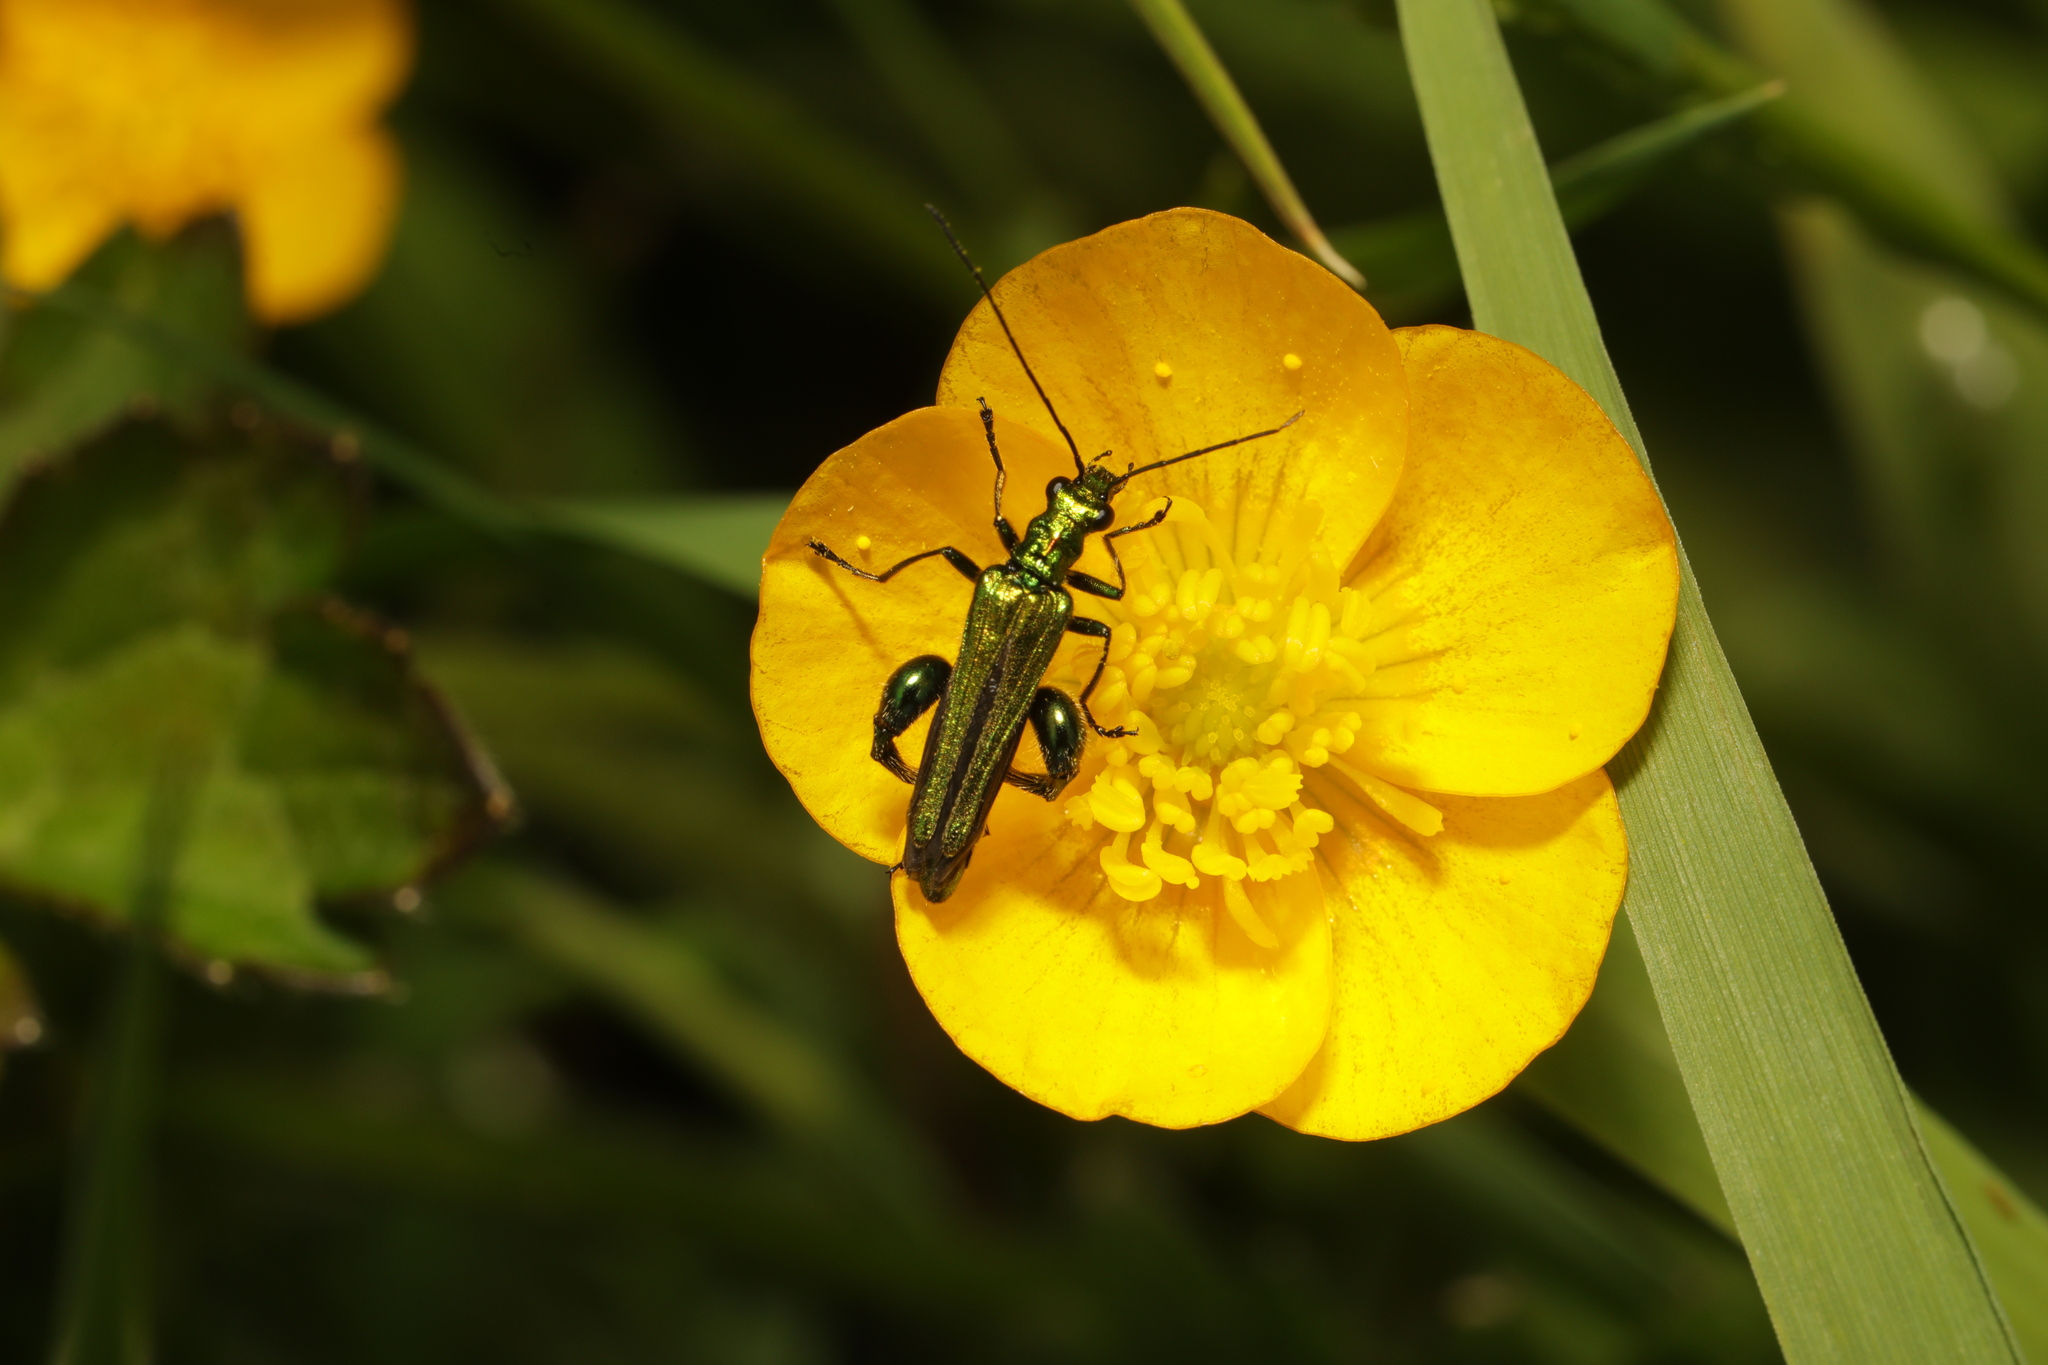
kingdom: Animalia
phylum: Arthropoda
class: Insecta
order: Coleoptera
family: Oedemeridae
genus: Oedemera
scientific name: Oedemera nobilis
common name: Swollen-thighed beetle
